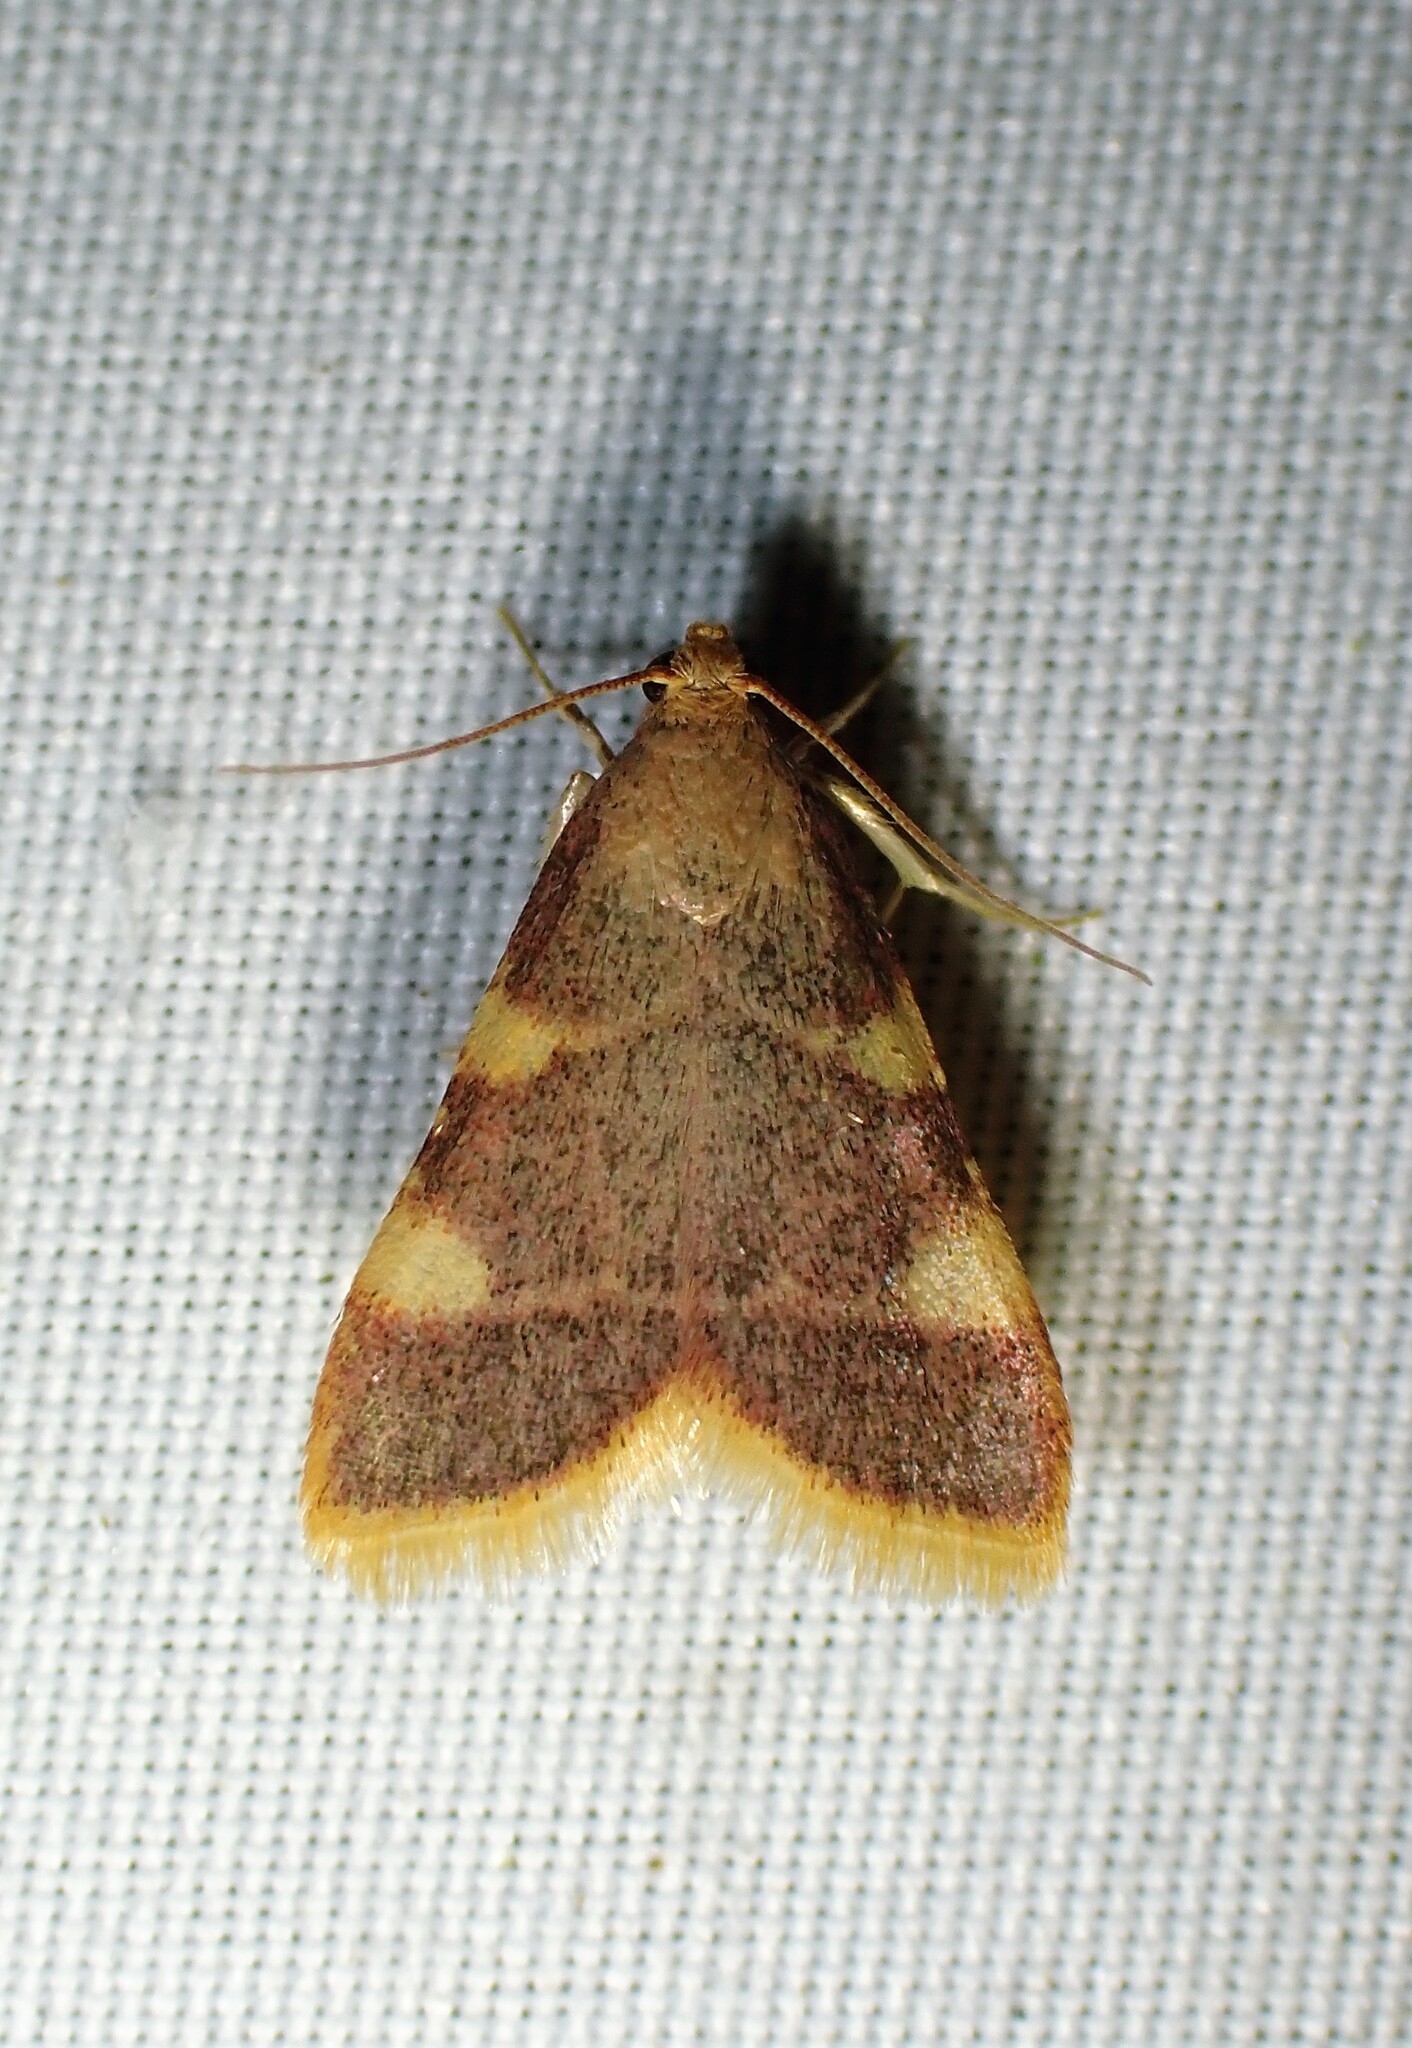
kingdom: Animalia
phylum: Arthropoda
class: Insecta
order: Lepidoptera
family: Pyralidae
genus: Hypsopygia
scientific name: Hypsopygia costalis
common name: Gold triangle
